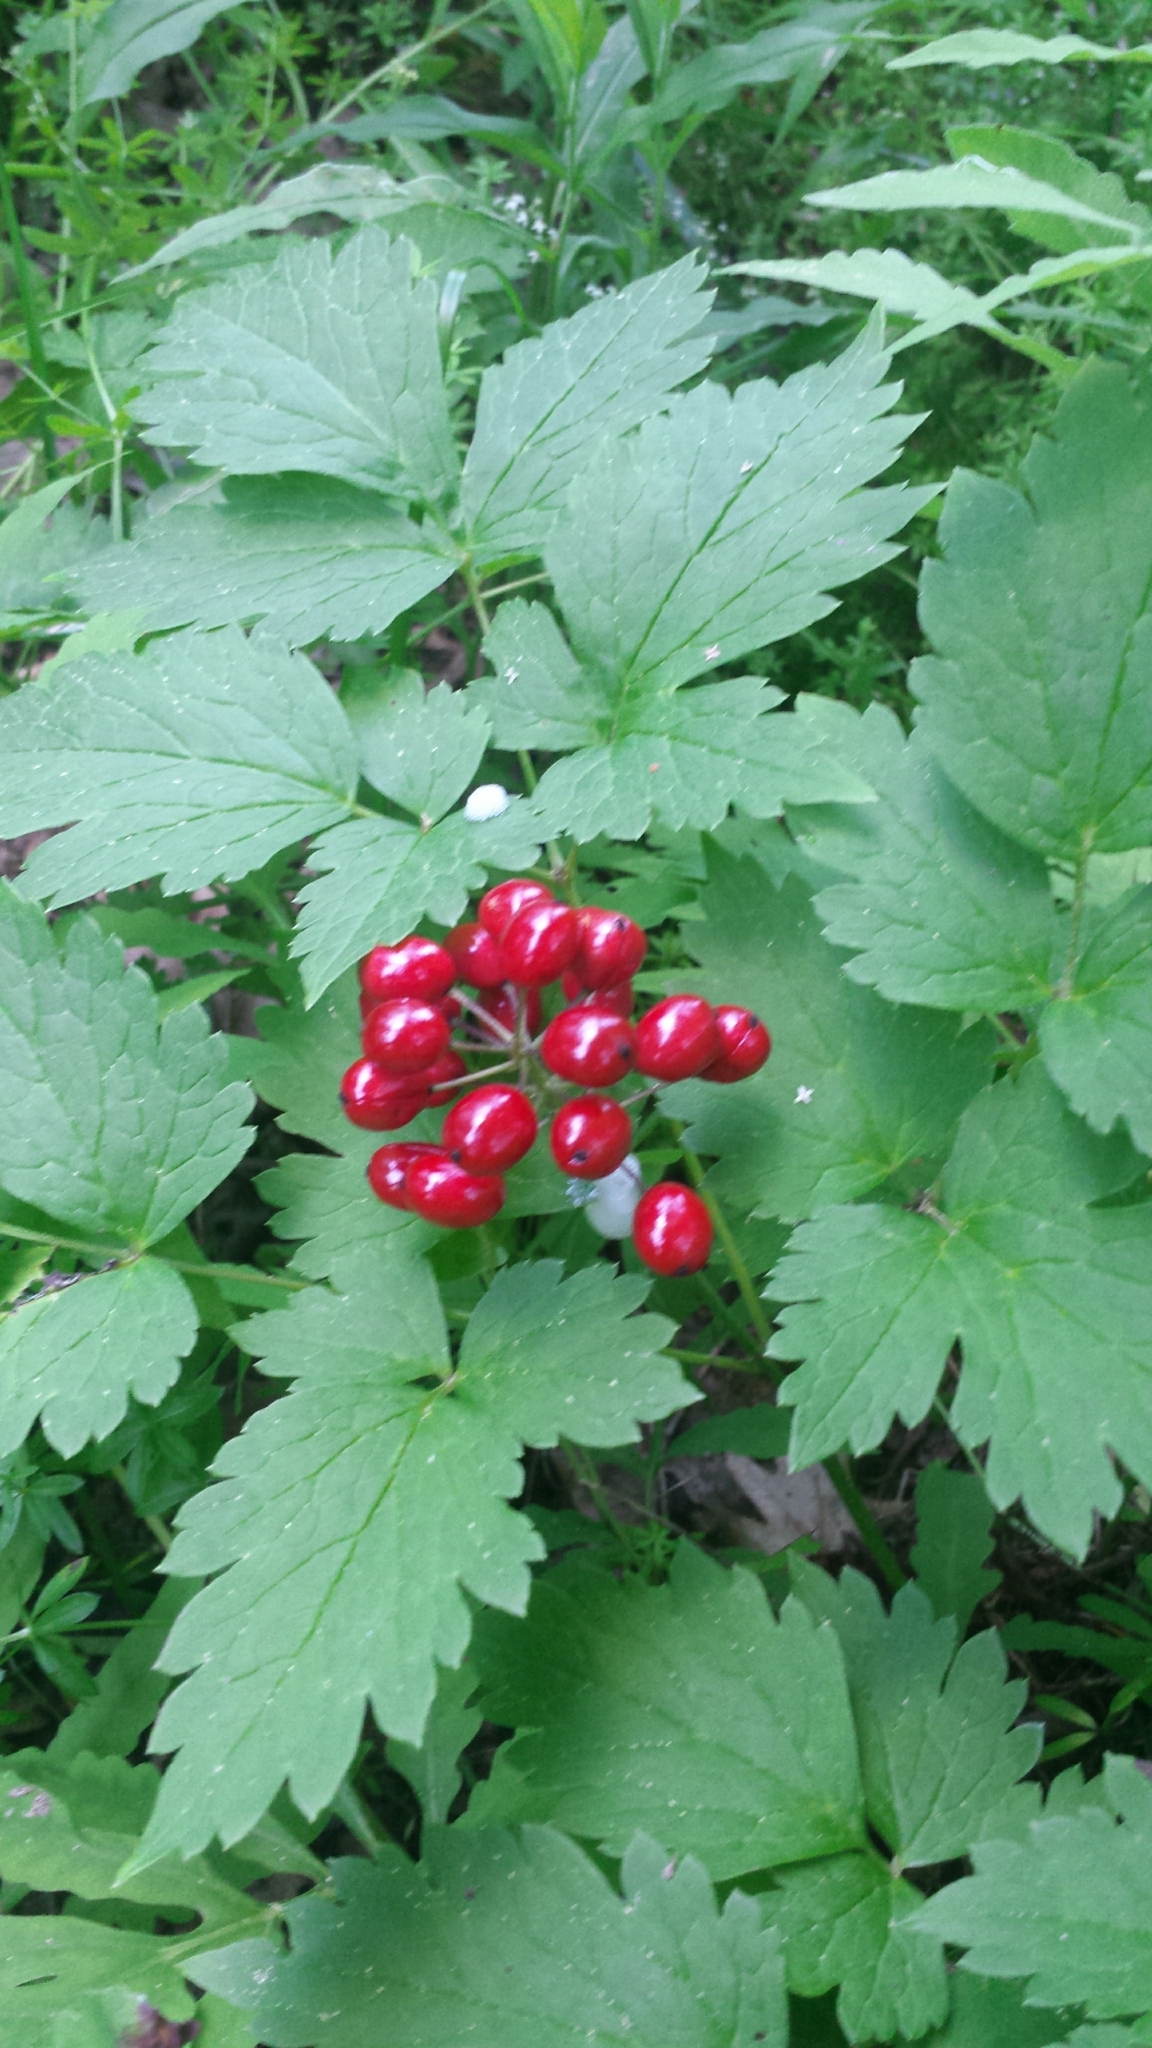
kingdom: Plantae
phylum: Tracheophyta
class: Magnoliopsida
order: Ranunculales
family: Ranunculaceae
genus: Actaea
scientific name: Actaea rubra
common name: Red baneberry
